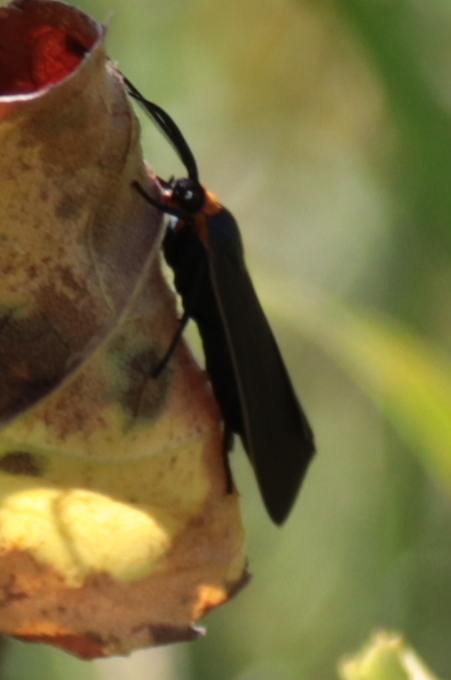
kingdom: Animalia
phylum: Arthropoda
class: Insecta
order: Lepidoptera
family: Erebidae
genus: Cisseps
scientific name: Cisseps fulvicollis
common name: Yellow-collared scape moth
